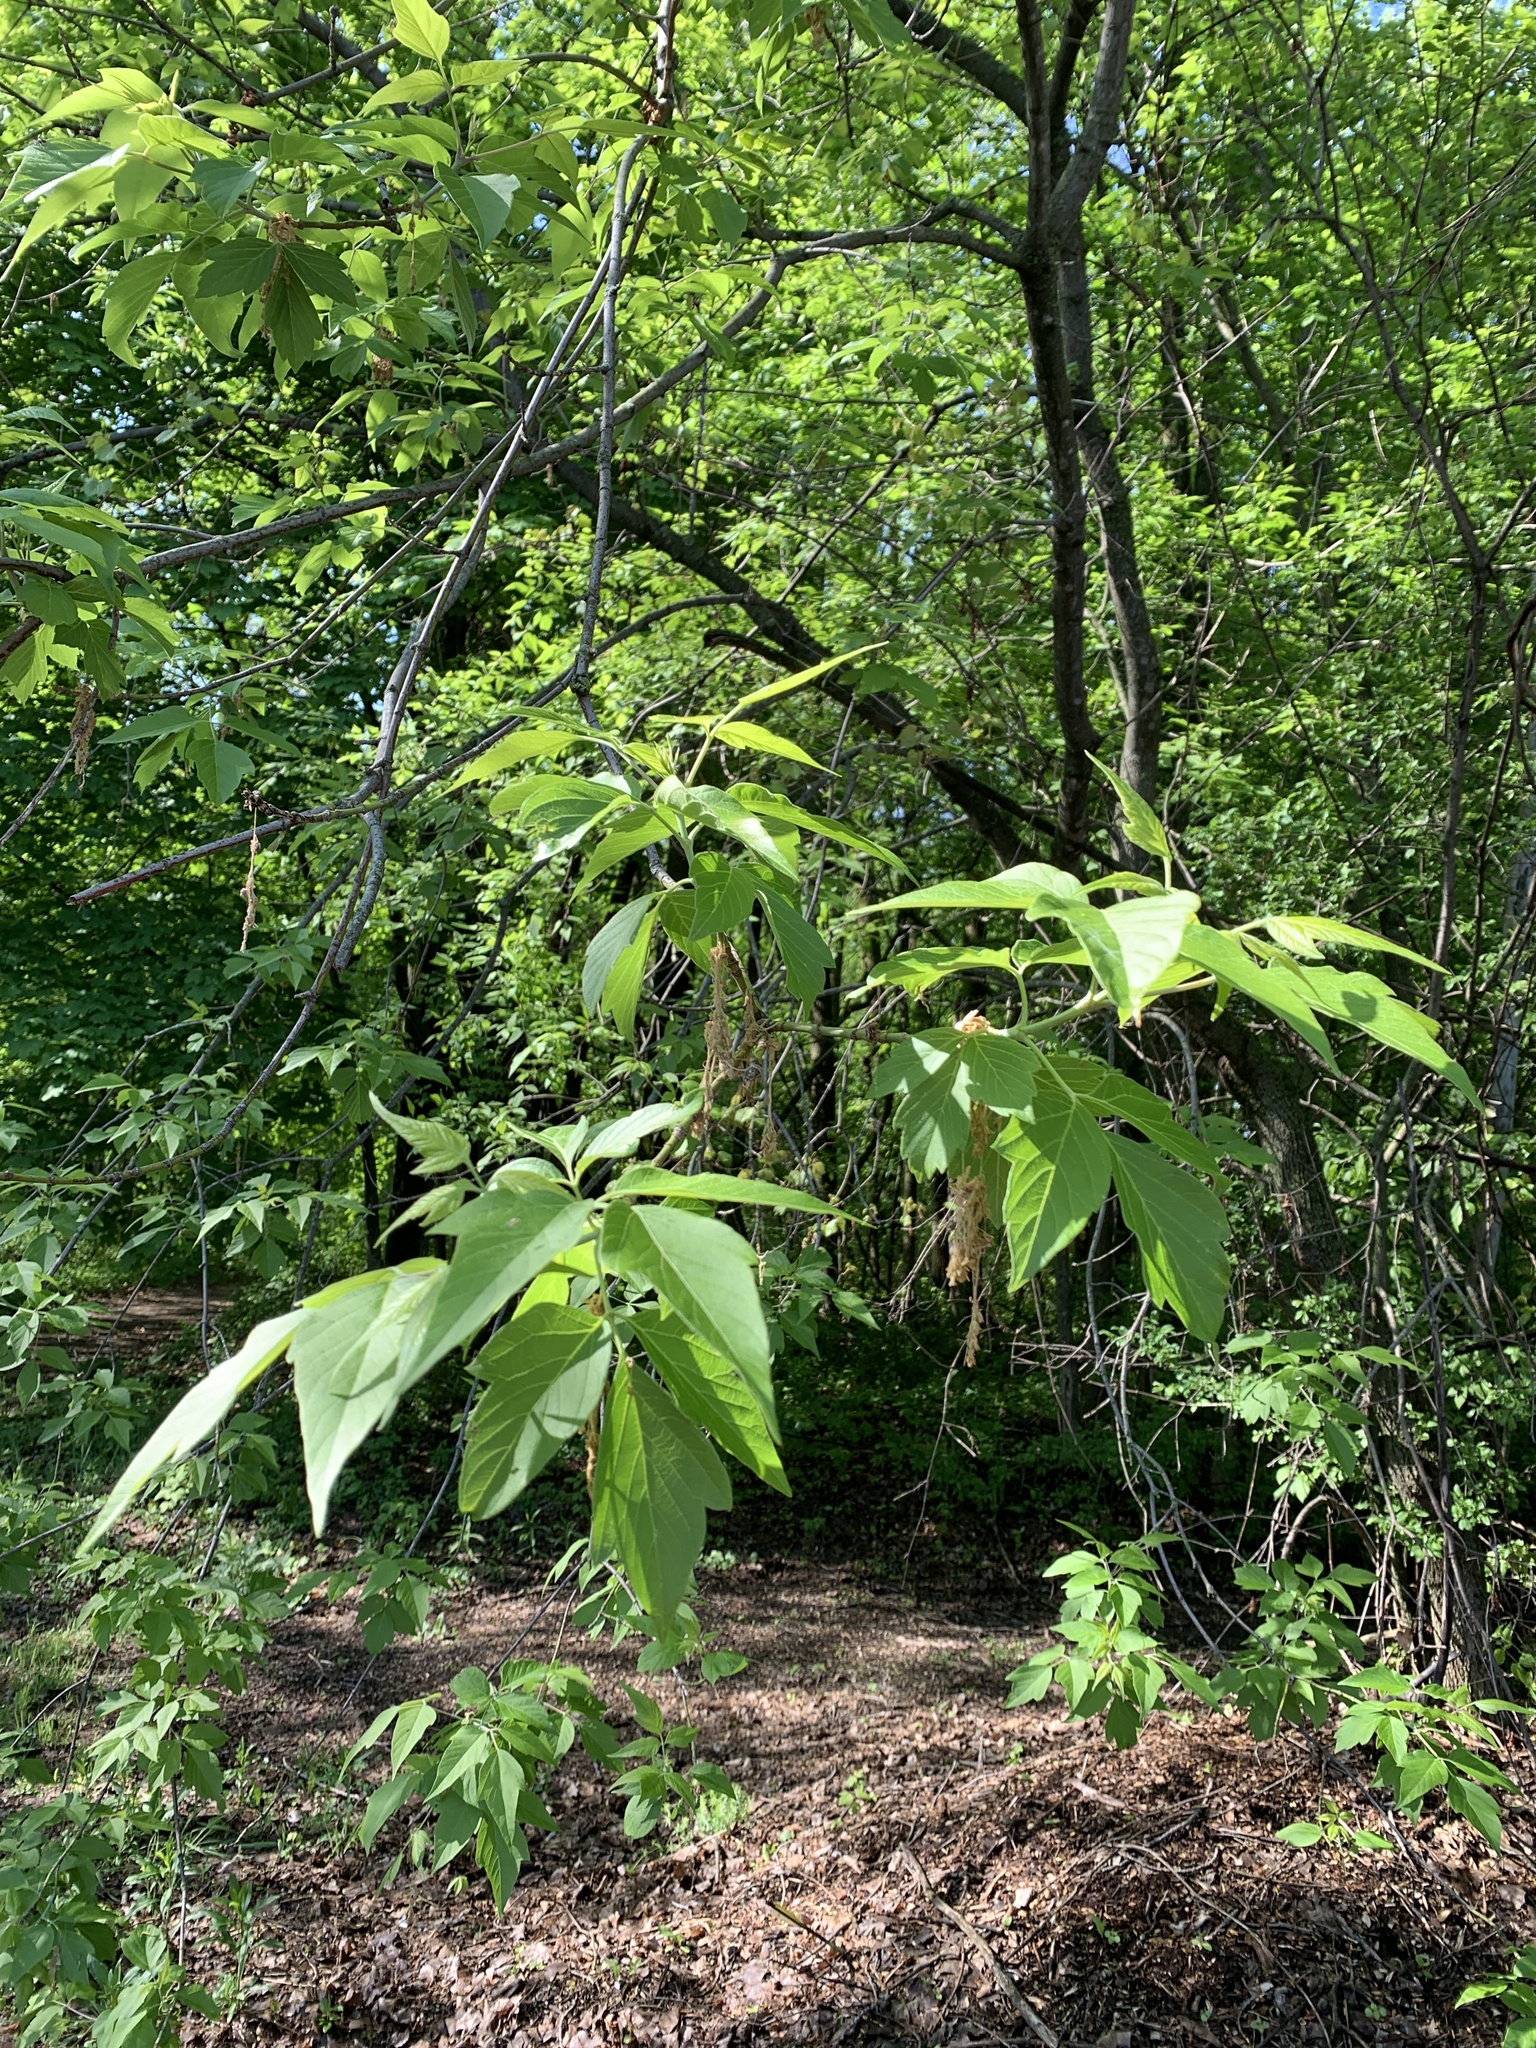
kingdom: Plantae
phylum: Tracheophyta
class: Magnoliopsida
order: Sapindales
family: Sapindaceae
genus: Acer
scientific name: Acer negundo
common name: Ashleaf maple
